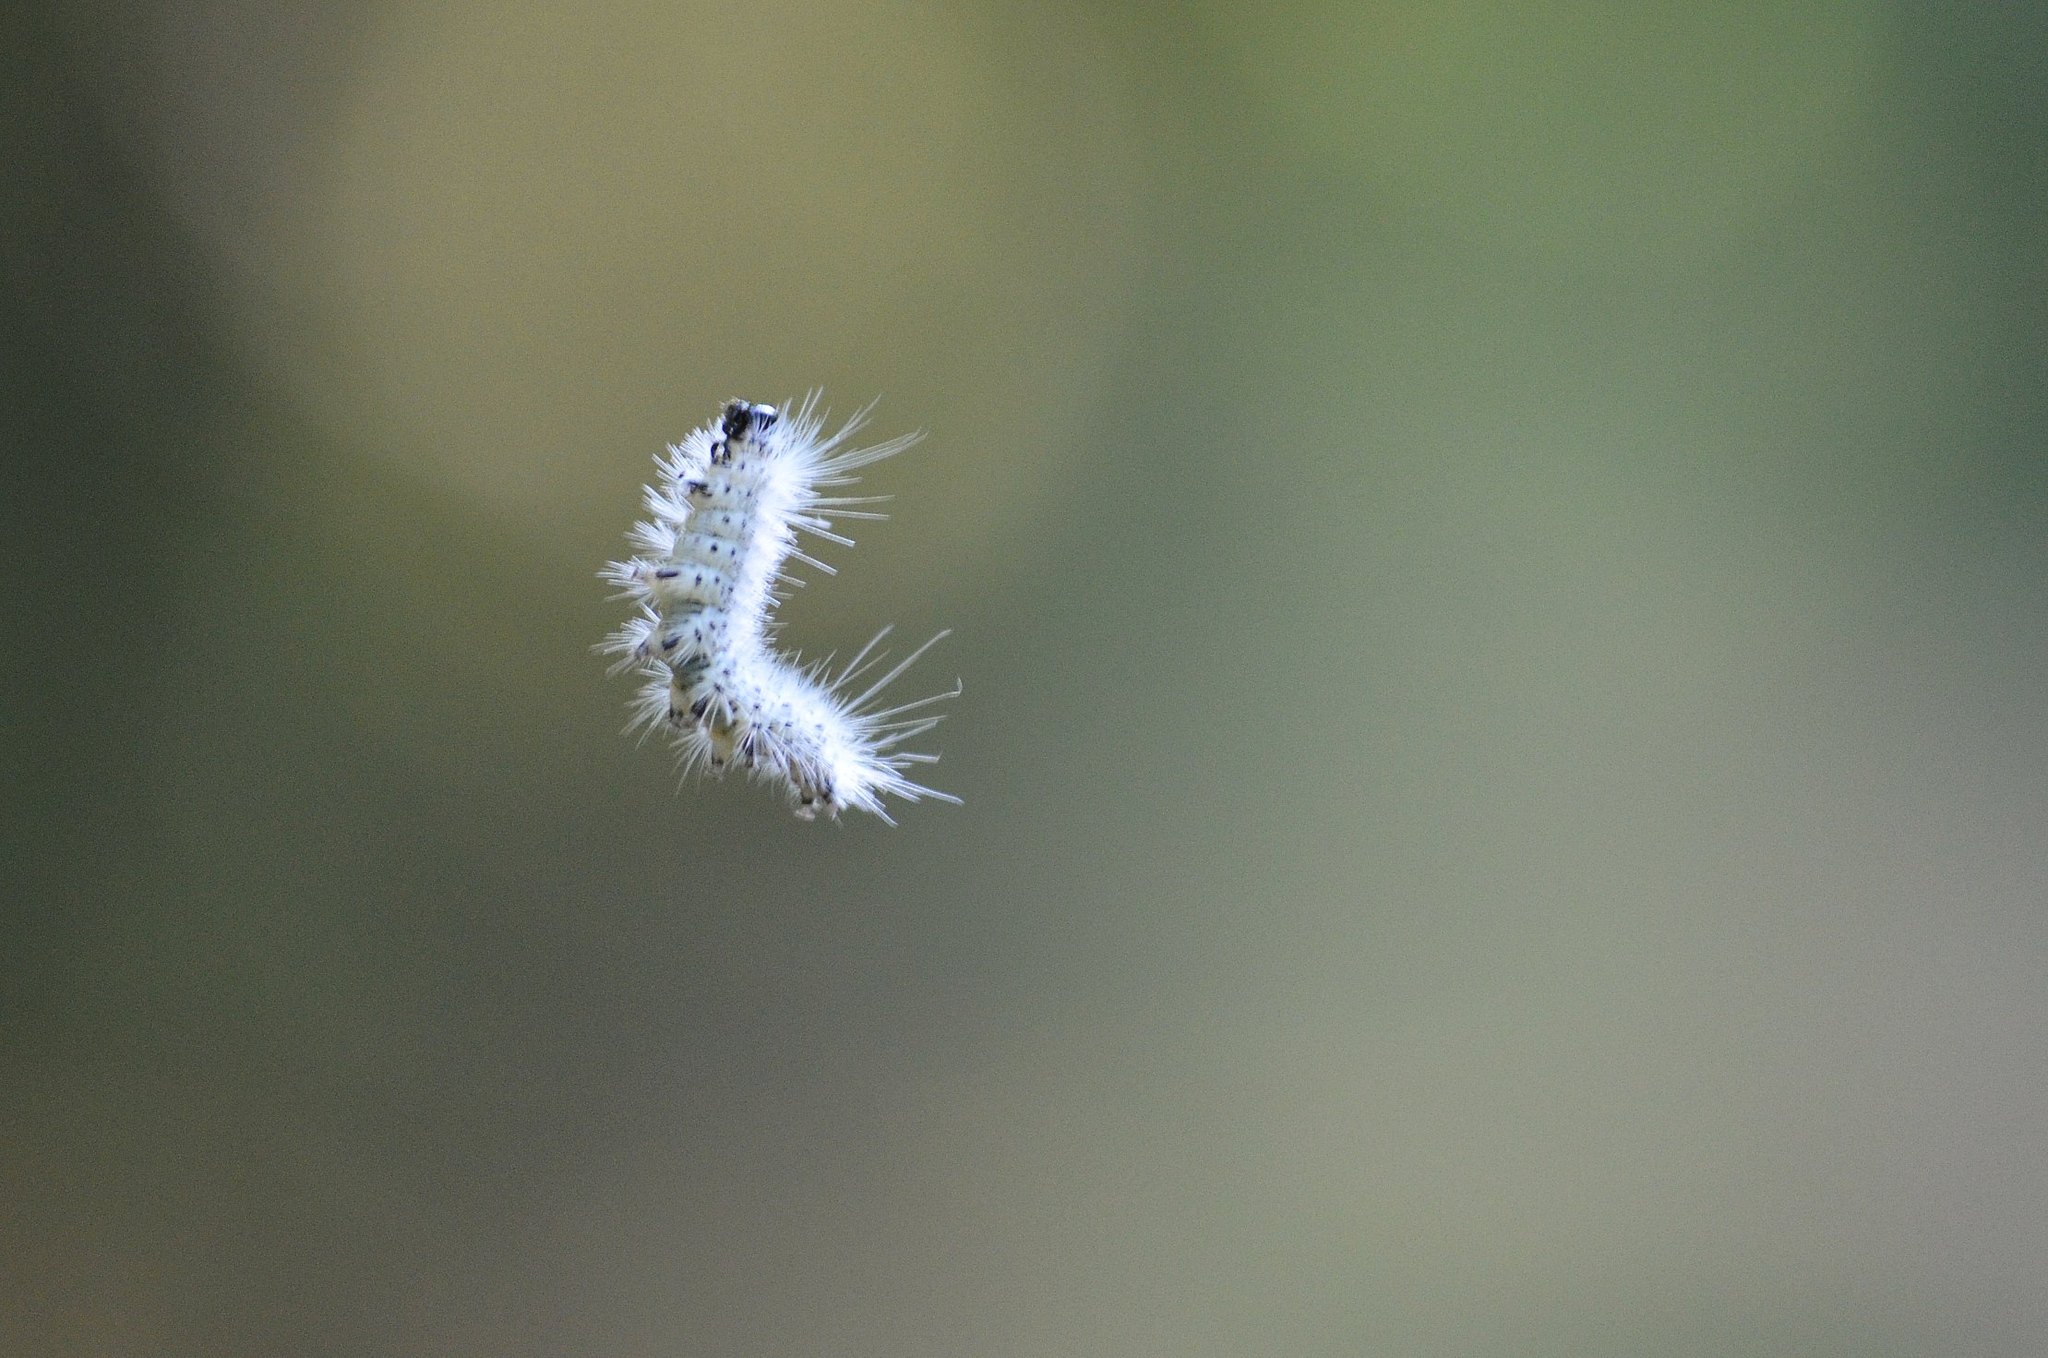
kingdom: Animalia
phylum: Arthropoda
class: Insecta
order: Lepidoptera
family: Erebidae
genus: Lophocampa
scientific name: Lophocampa caryae
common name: Hickory tussock moth
